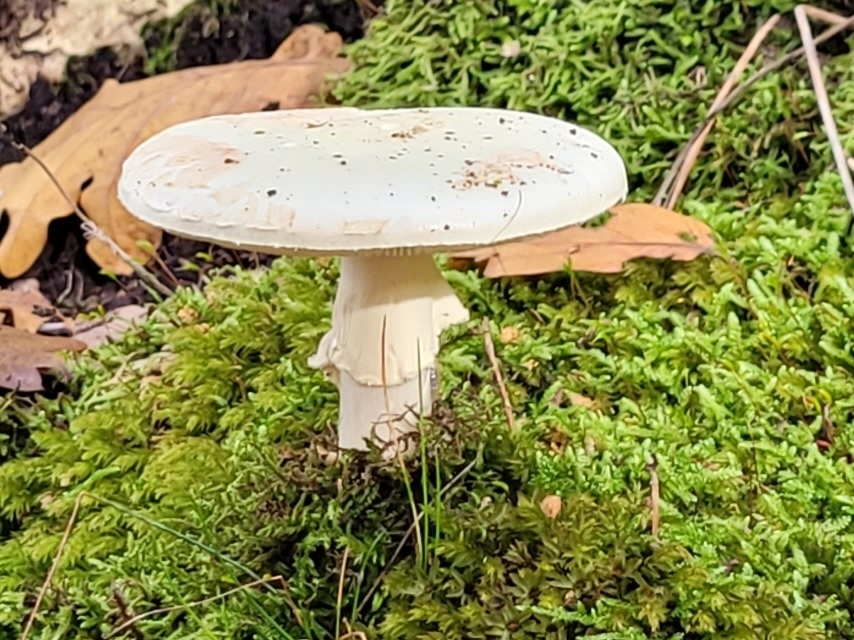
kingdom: Fungi
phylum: Basidiomycota
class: Agaricomycetes
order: Agaricales
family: Amanitaceae
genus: Amanita
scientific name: Amanita citrina
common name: False death-cap
